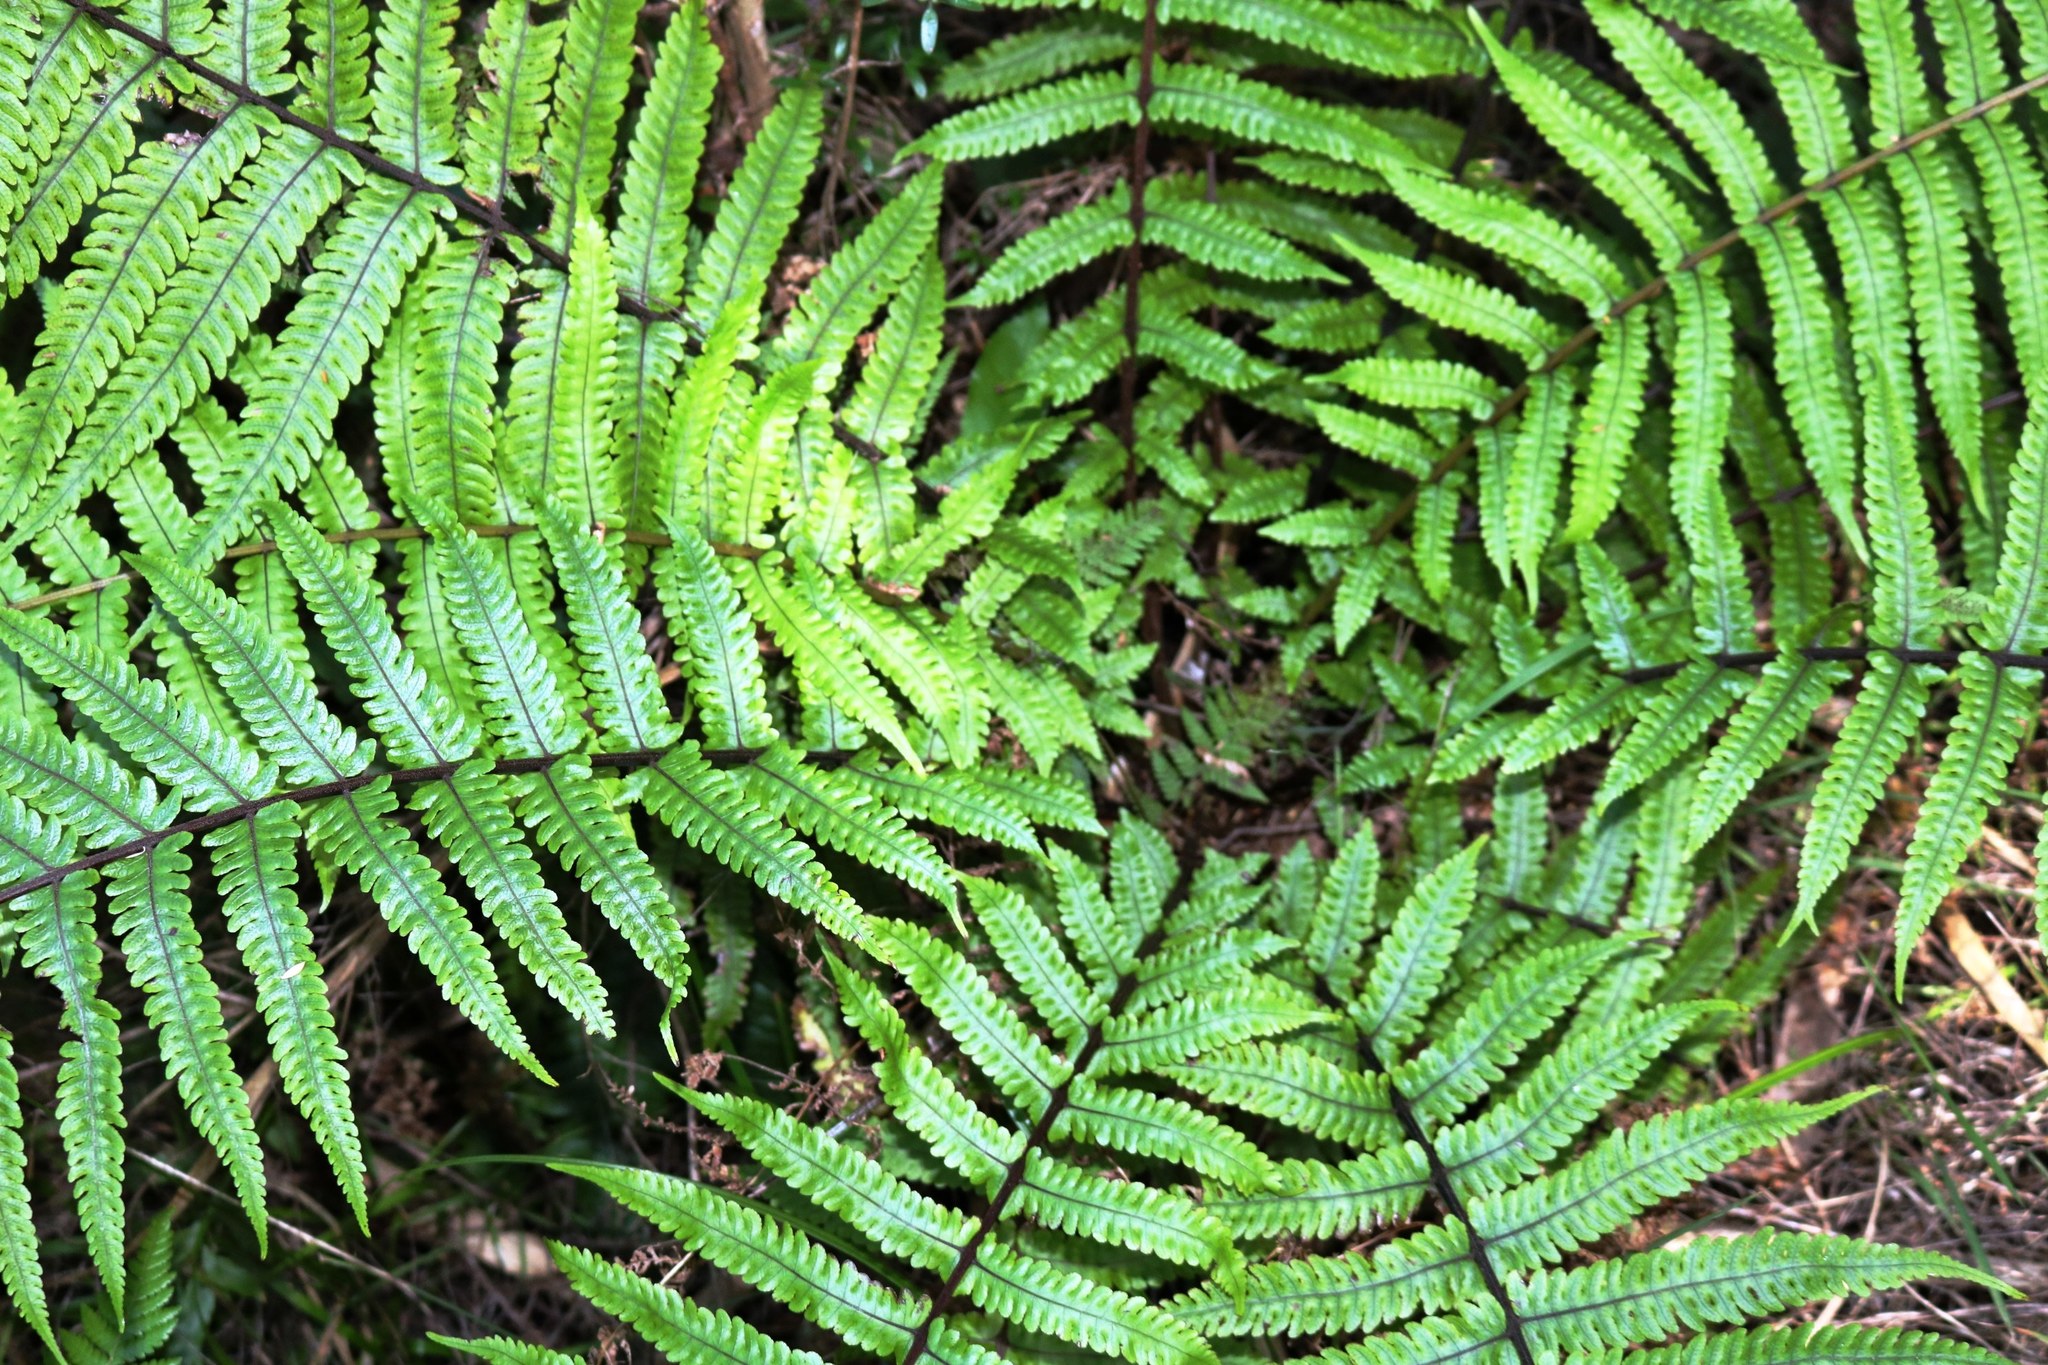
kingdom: Plantae
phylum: Tracheophyta
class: Polypodiopsida
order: Polypodiales
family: Thelypteridaceae
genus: Pakau
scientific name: Pakau pennigera
